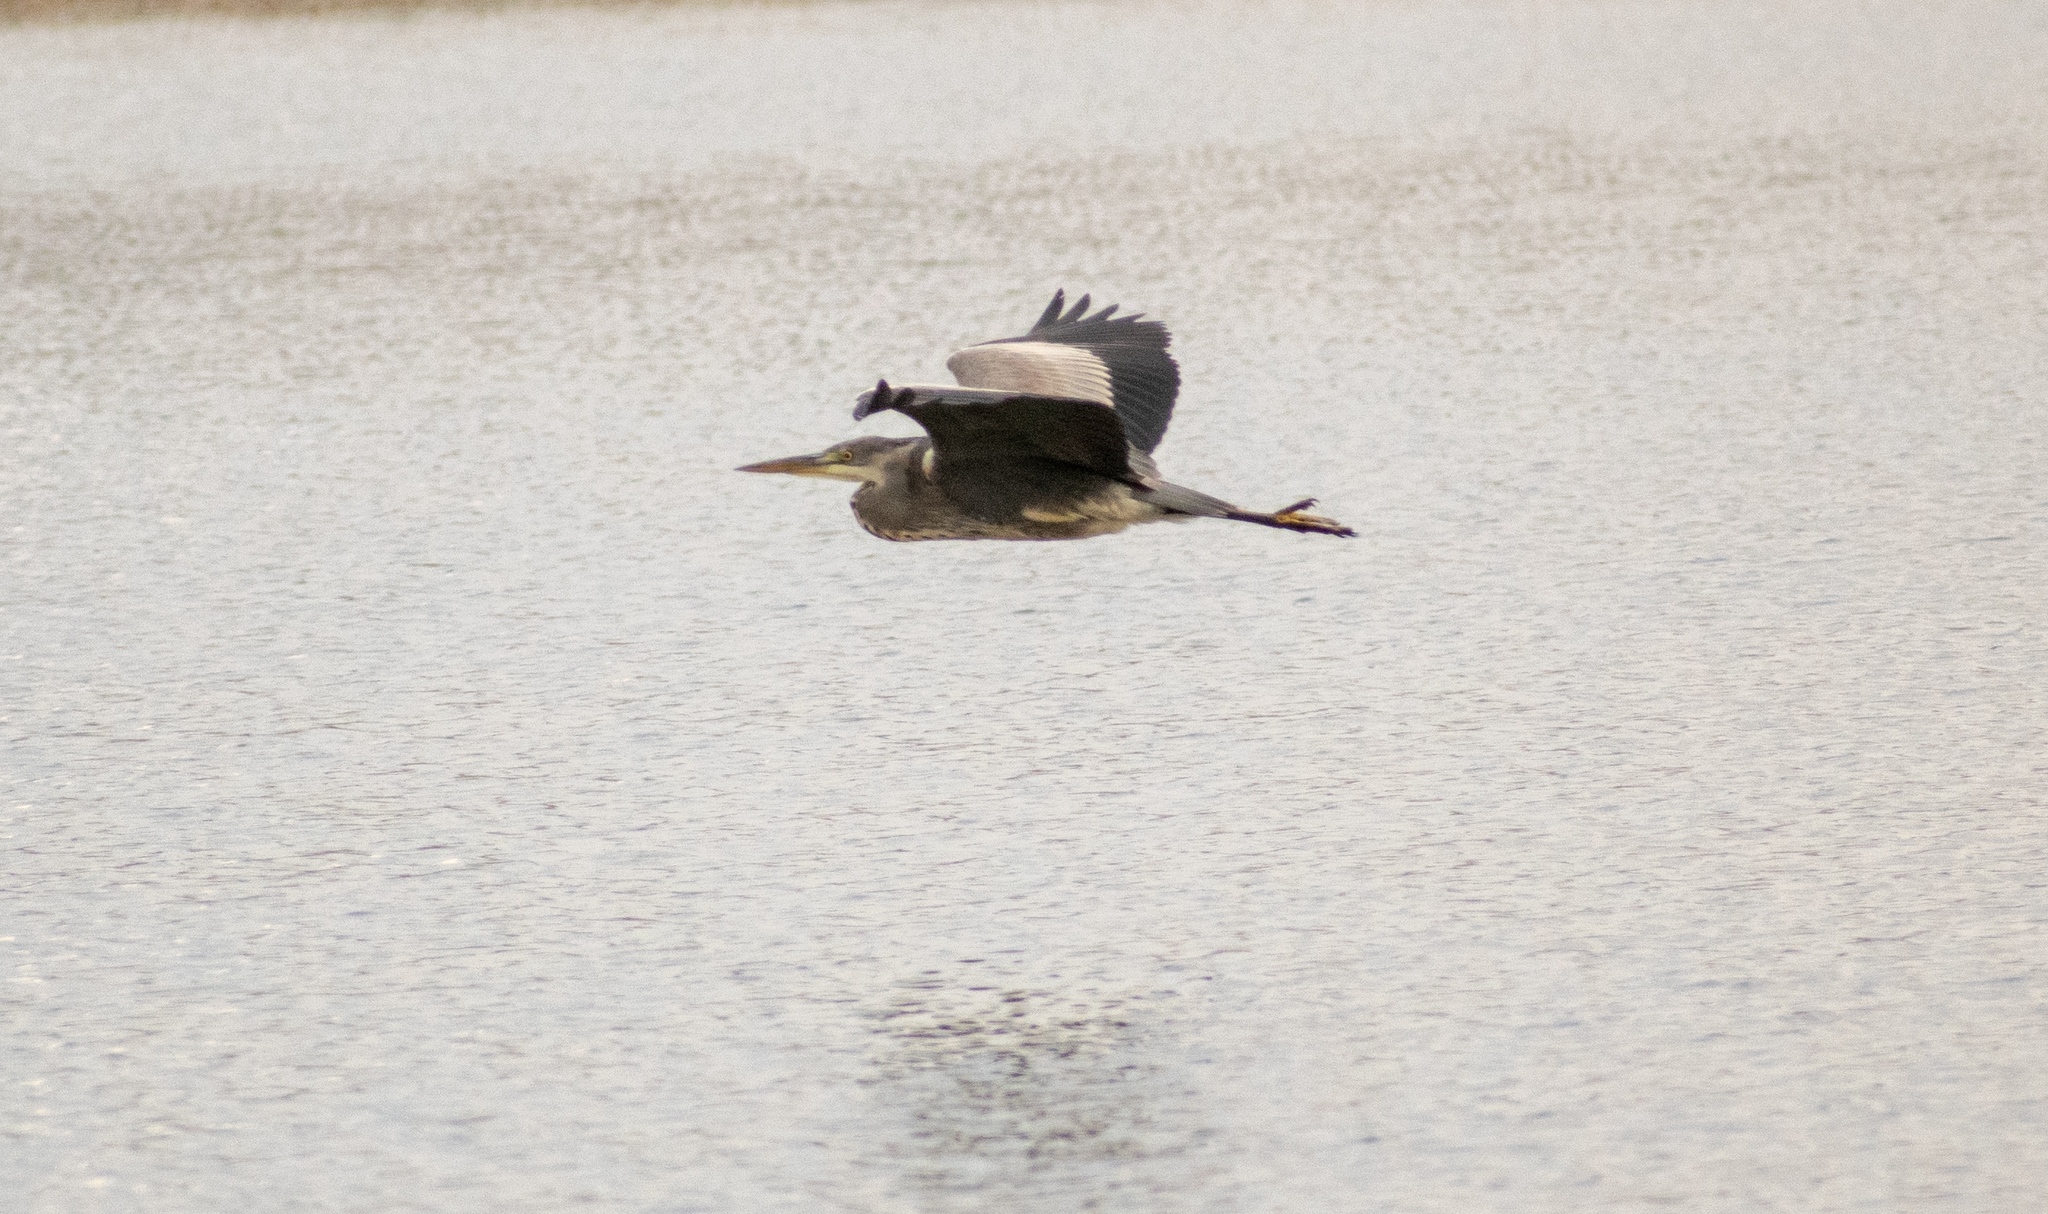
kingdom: Animalia
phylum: Chordata
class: Aves
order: Pelecaniformes
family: Ardeidae
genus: Ardea
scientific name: Ardea cinerea
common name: Grey heron
